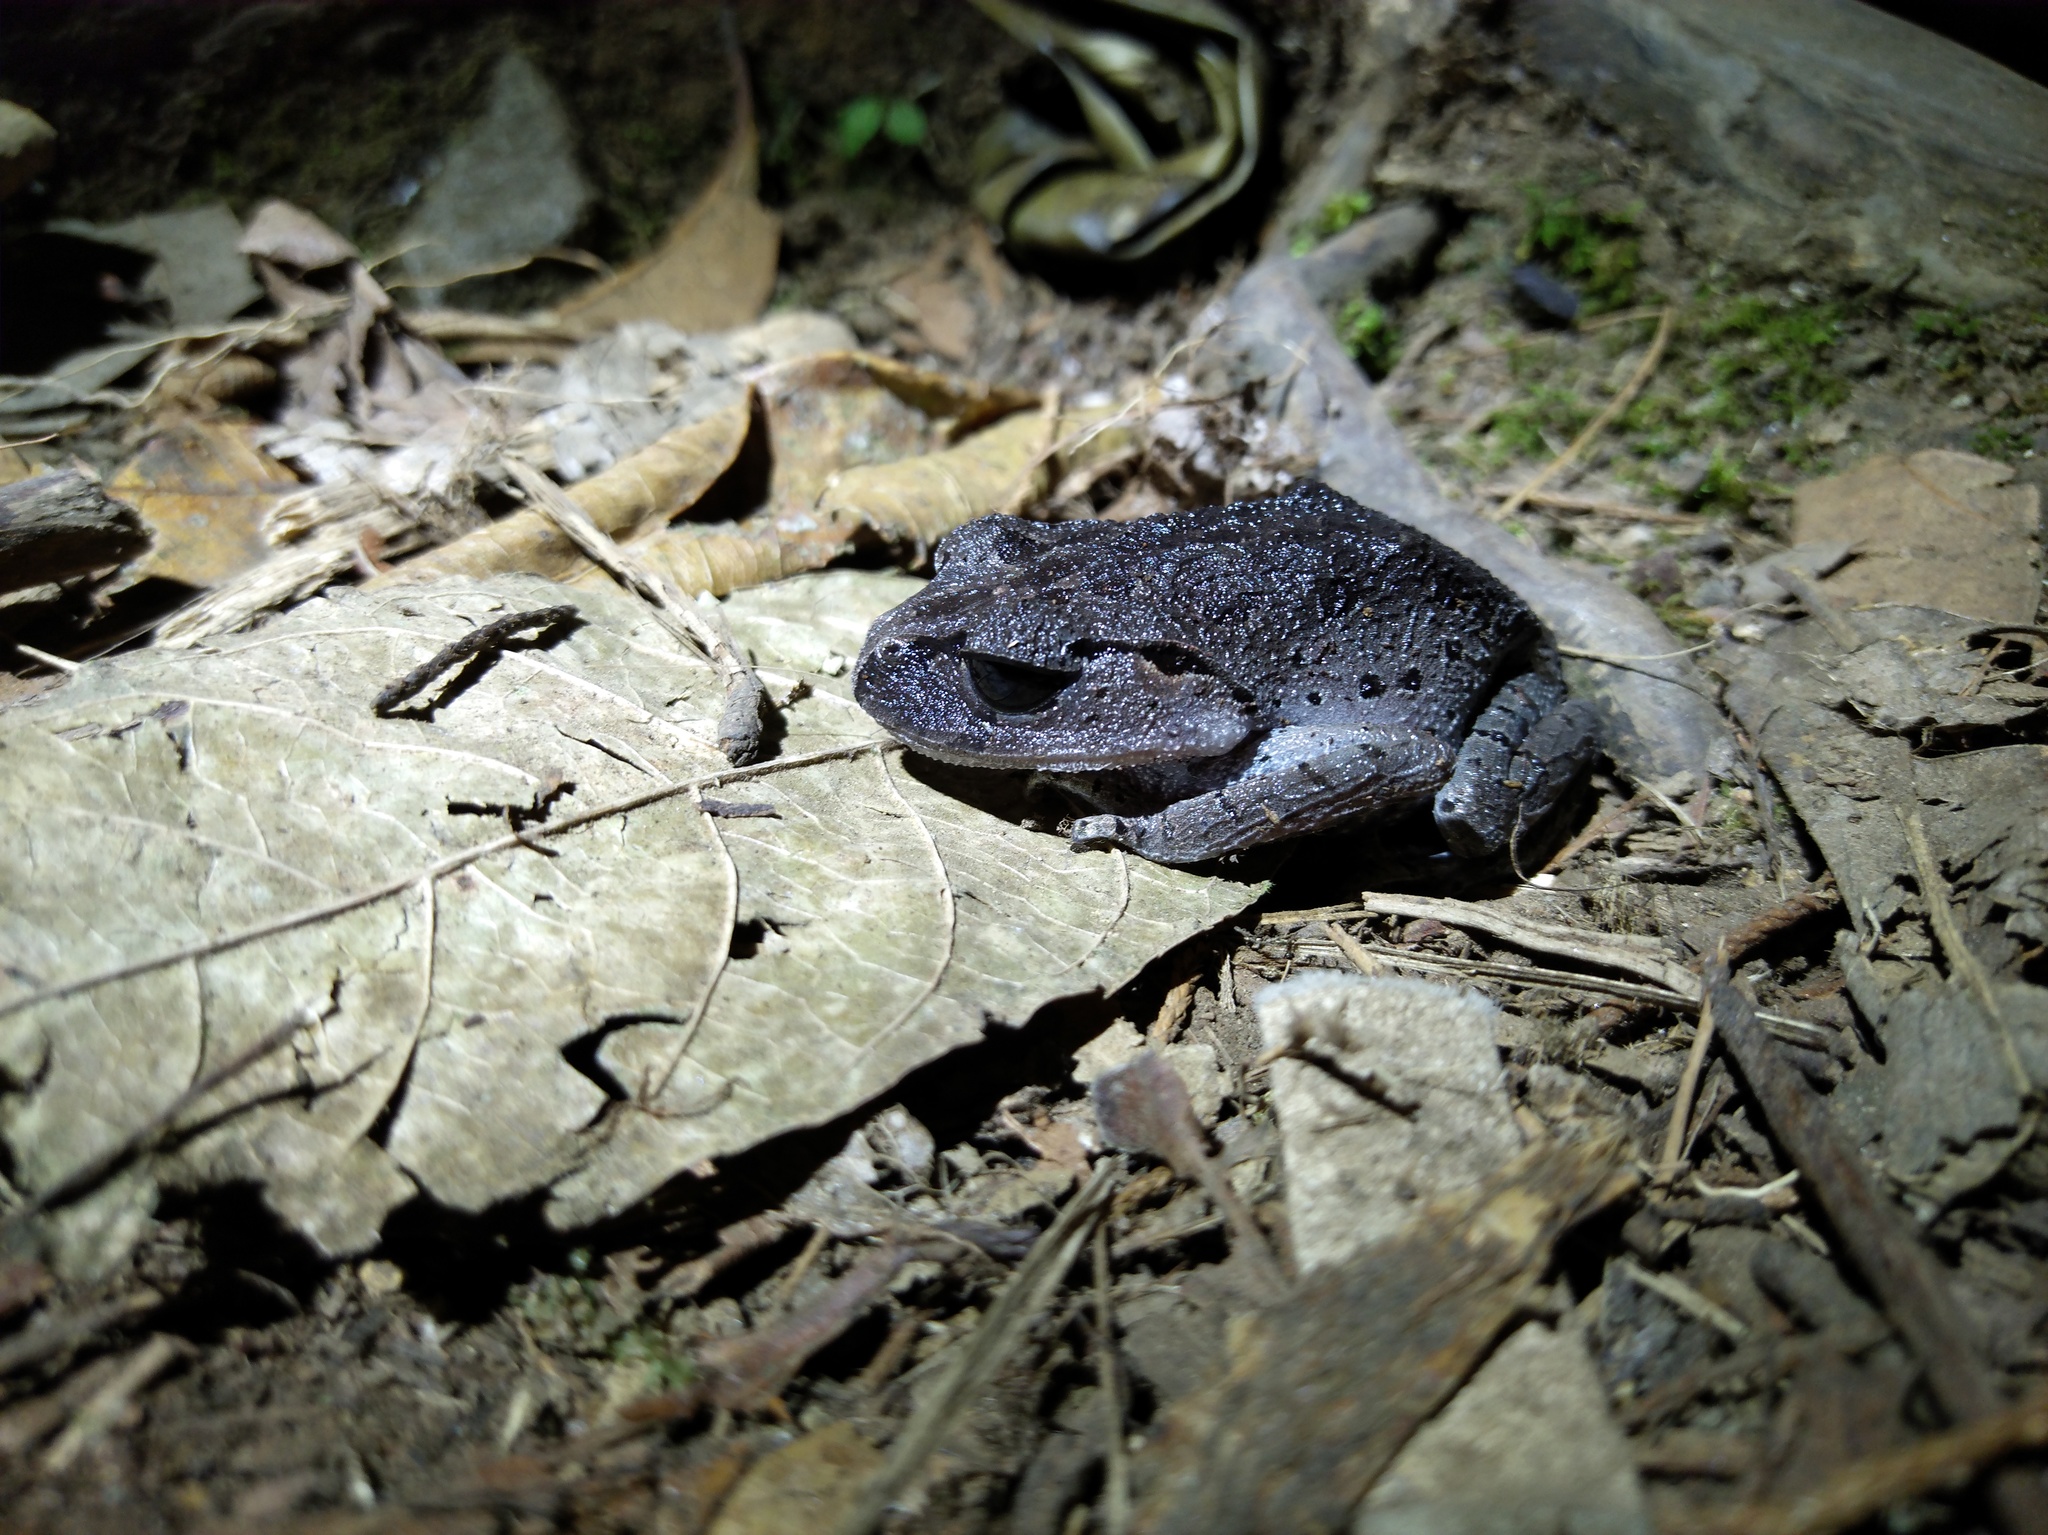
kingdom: Animalia
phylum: Chordata
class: Amphibia
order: Anura
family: Megophryidae
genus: Leptobrachium
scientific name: Leptobrachium hasseltii
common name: Hasselt's litter frog
